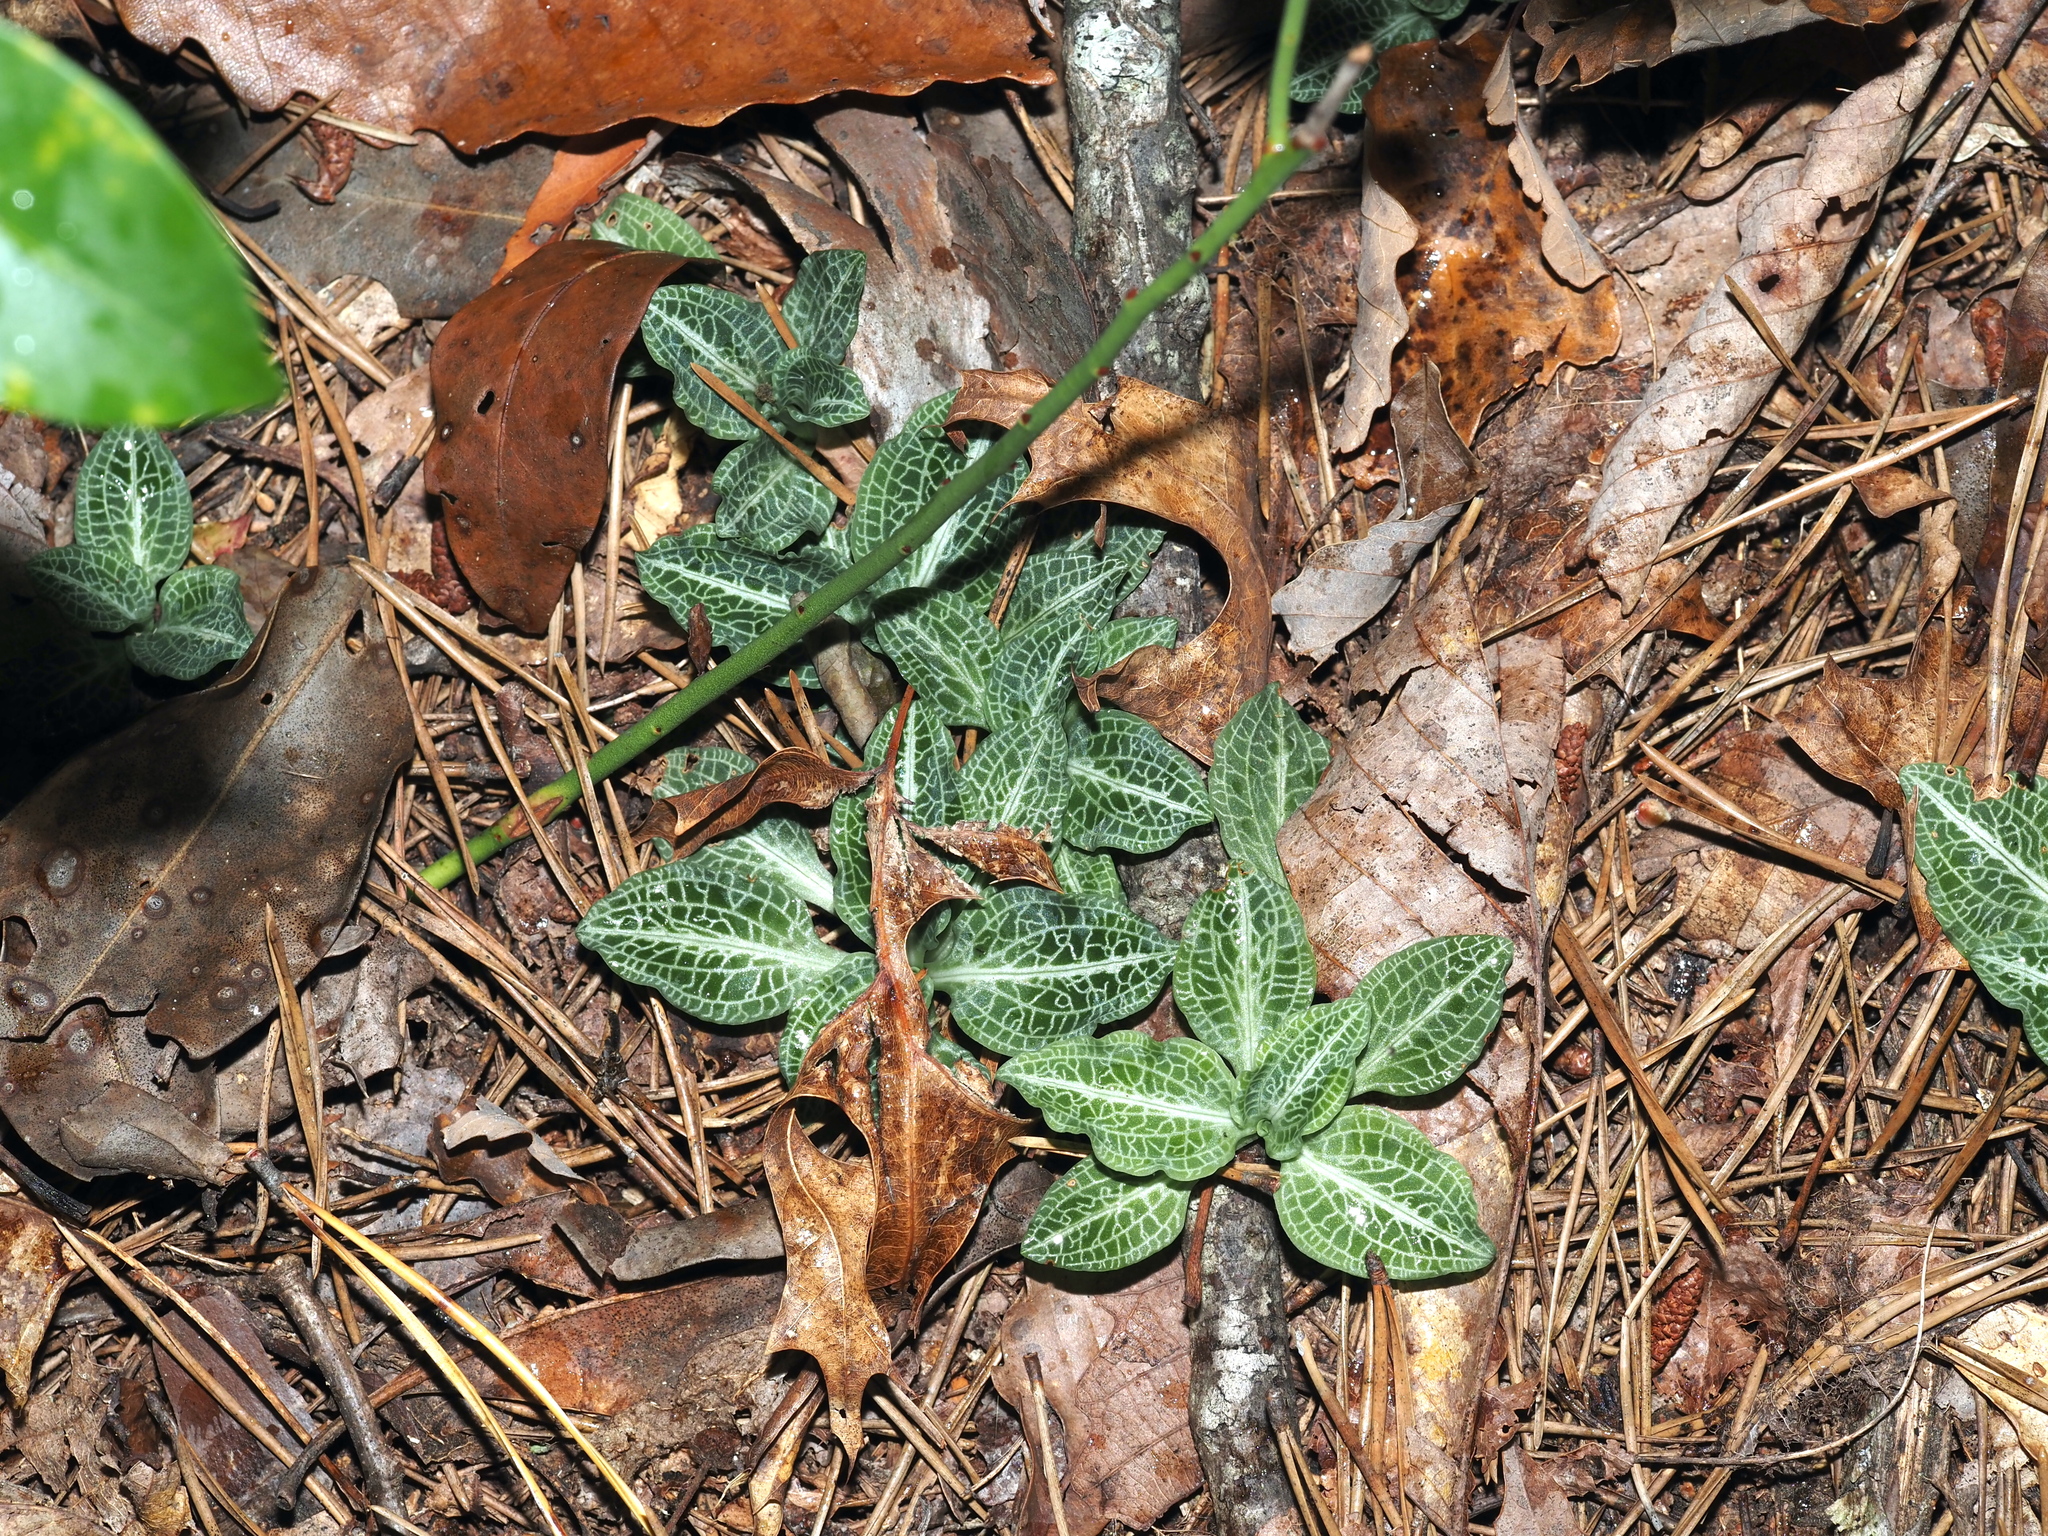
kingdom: Plantae
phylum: Tracheophyta
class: Liliopsida
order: Asparagales
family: Orchidaceae
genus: Goodyera
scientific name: Goodyera pubescens
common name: Downy rattlesnake-plantain
